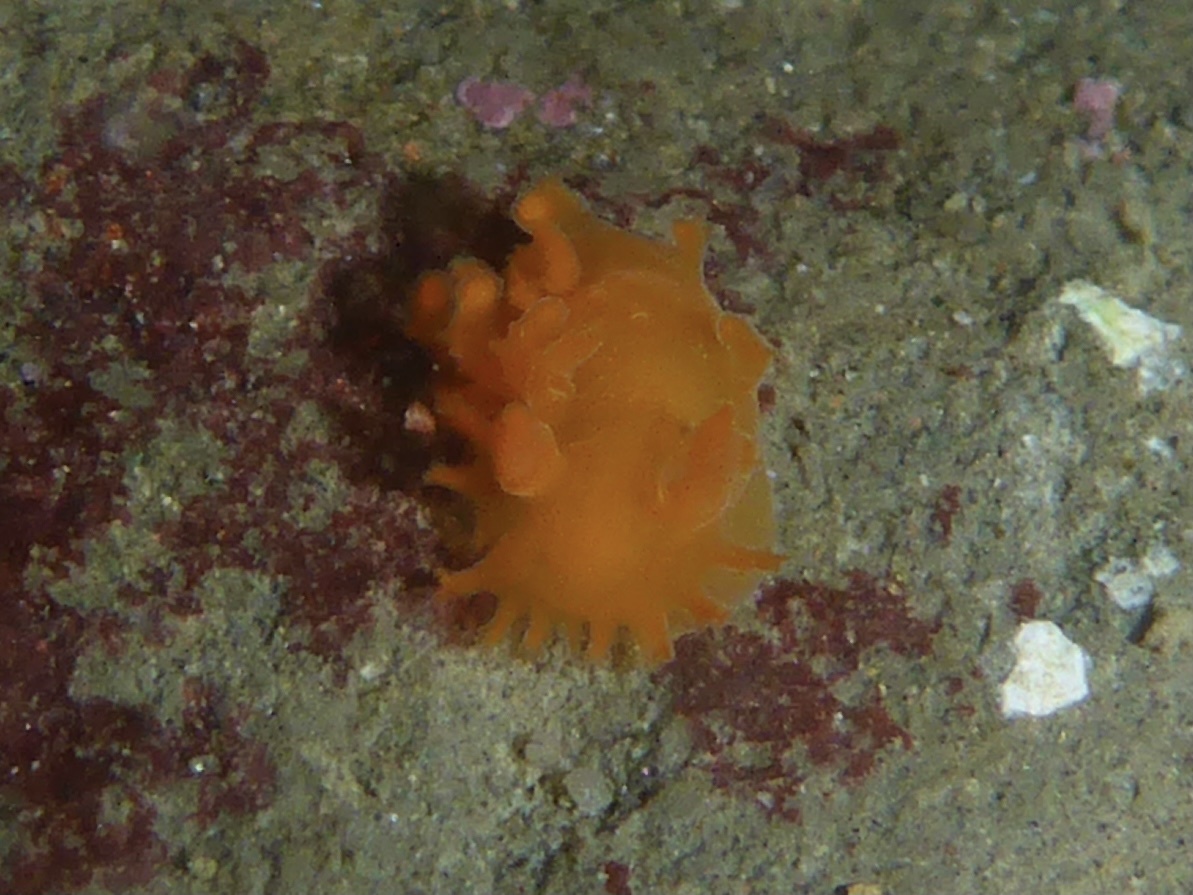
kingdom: Animalia
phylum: Mollusca
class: Gastropoda
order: Nudibranchia
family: Polyceridae
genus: Triopha
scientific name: Triopha maculata
